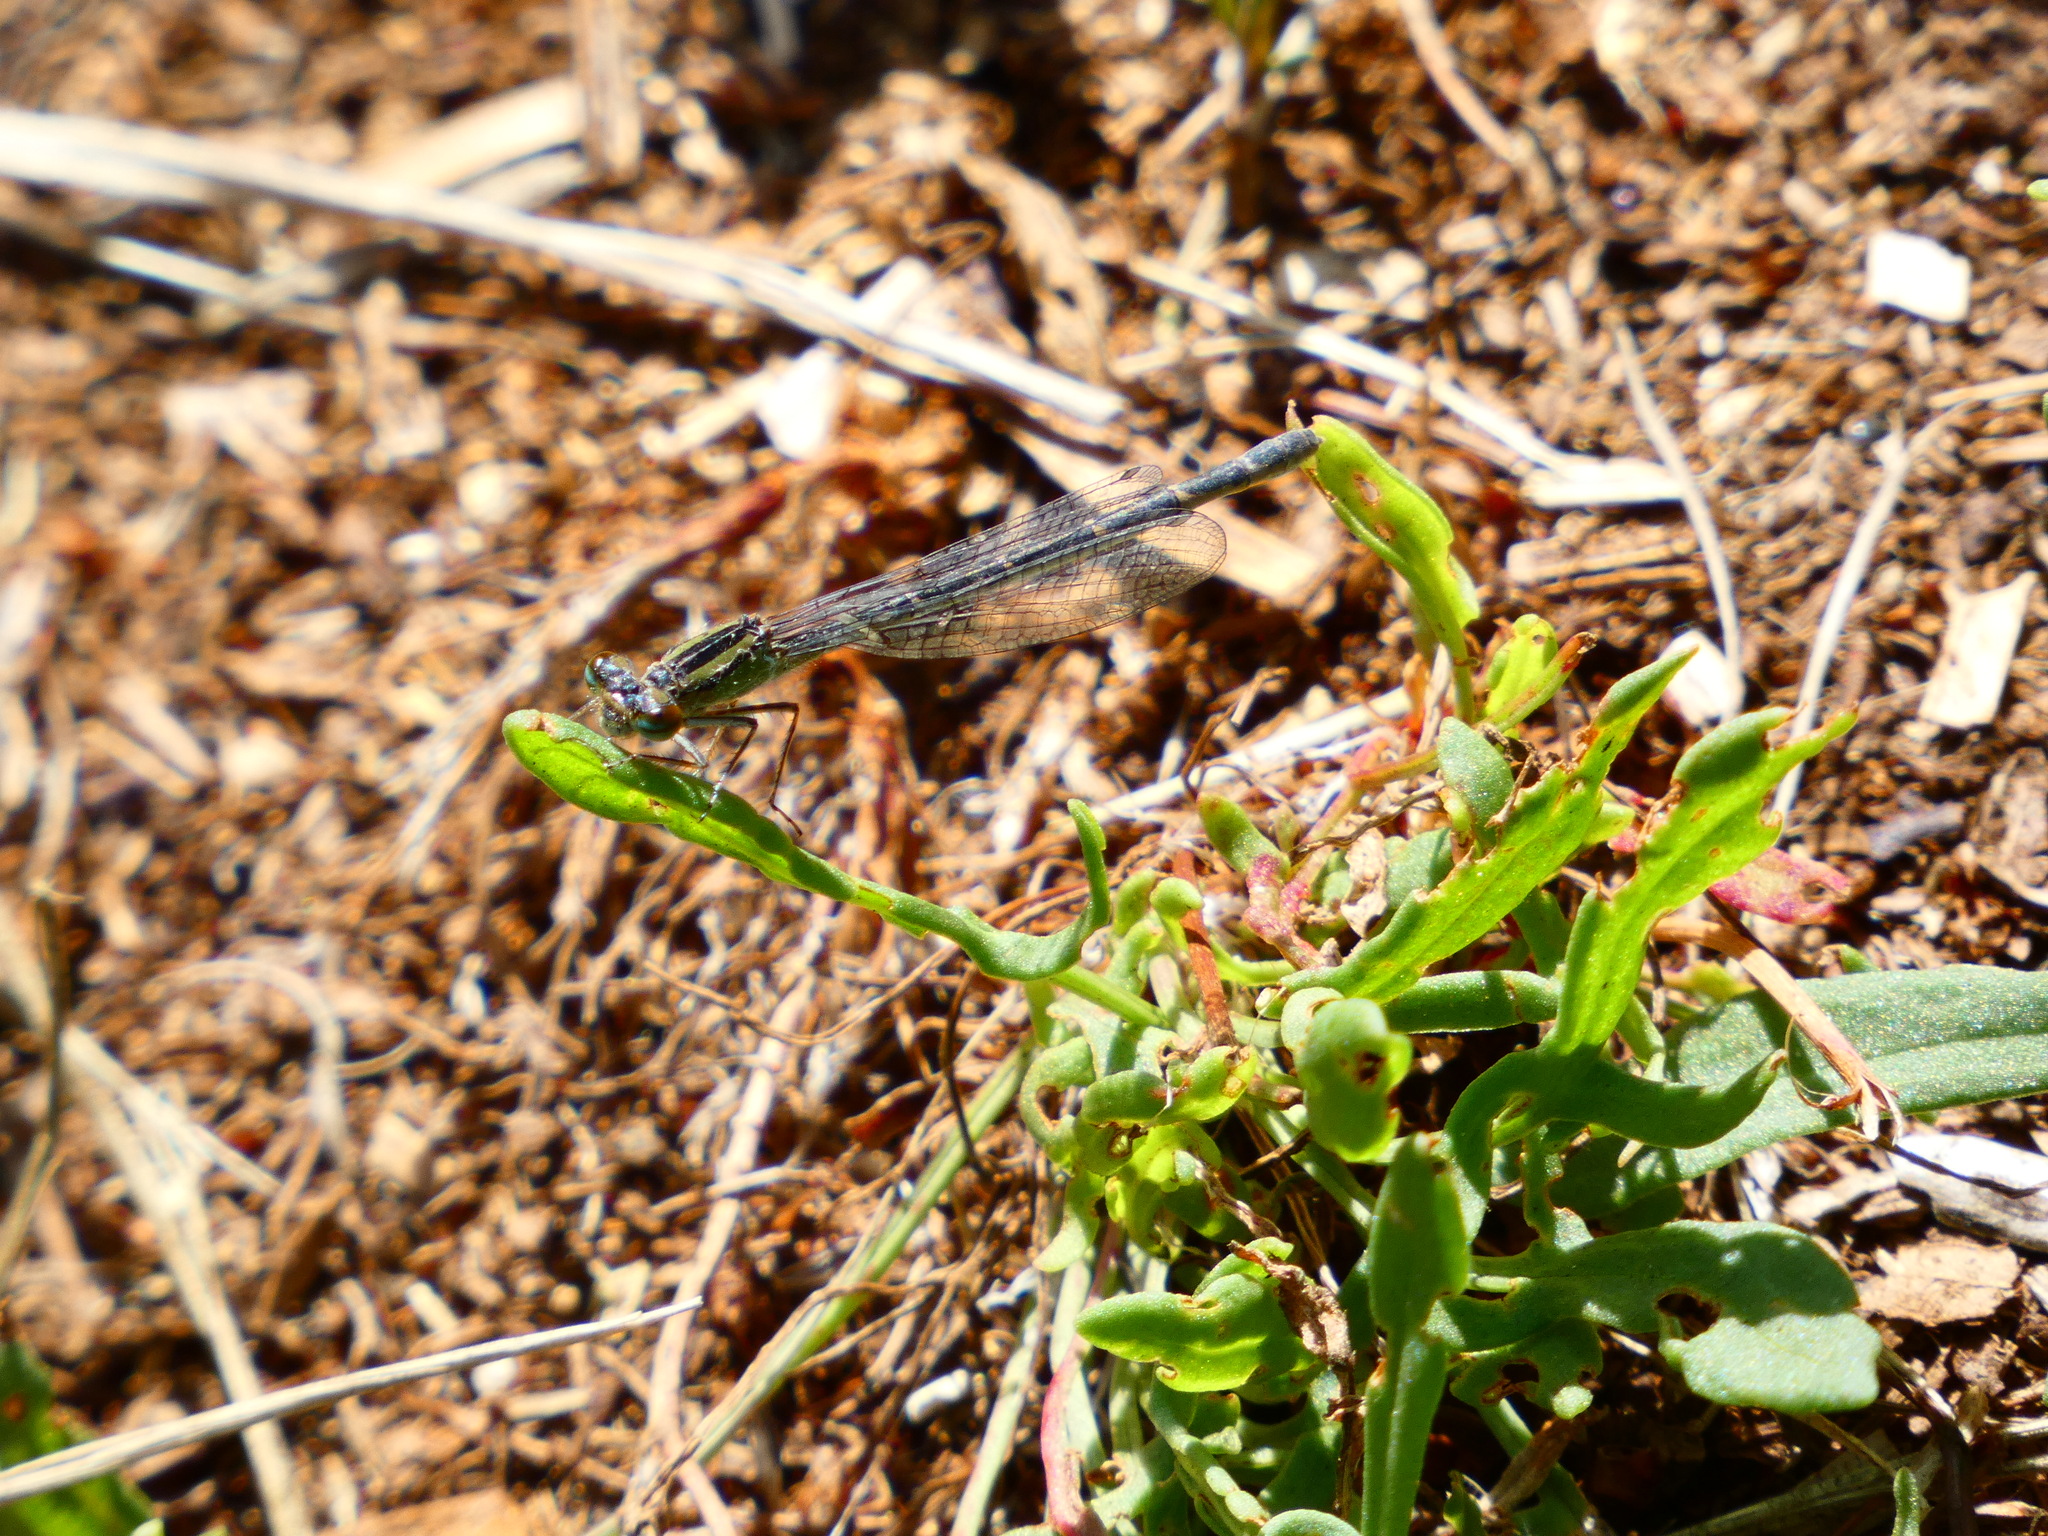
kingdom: Animalia
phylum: Arthropoda
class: Insecta
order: Odonata
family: Coenagrionidae
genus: Enallagma
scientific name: Enallagma cyathigerum
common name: Common blue damselfly
